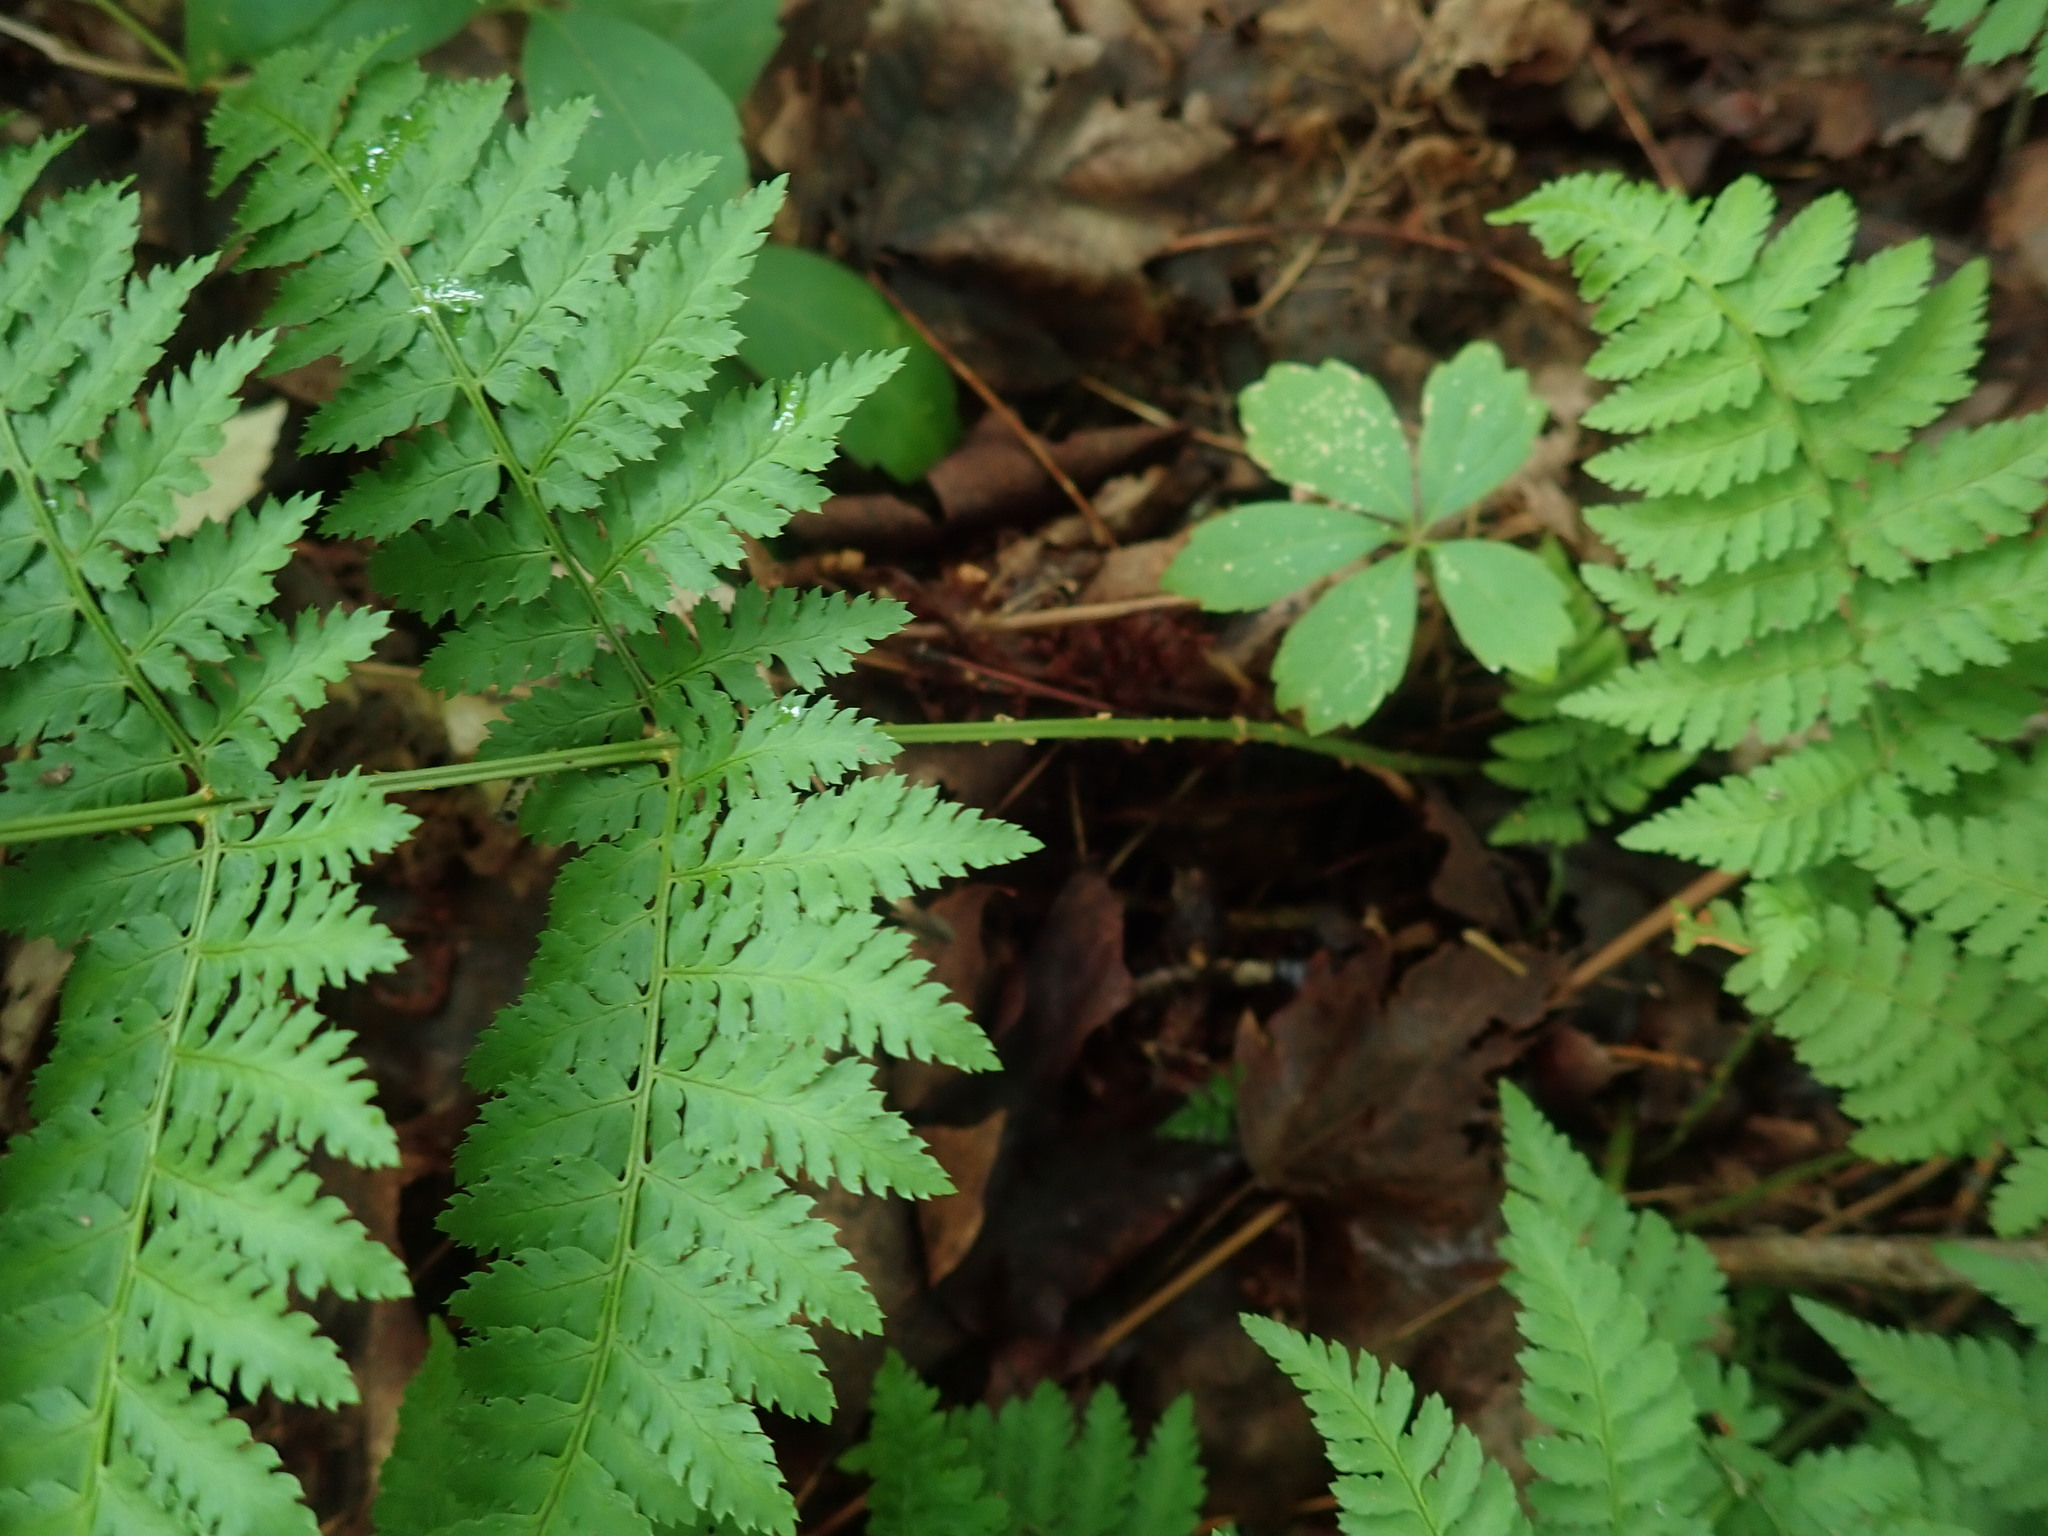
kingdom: Plantae
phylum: Tracheophyta
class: Polypodiopsida
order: Polypodiales
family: Dryopteridaceae
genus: Dryopteris
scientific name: Dryopteris intermedia
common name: Evergreen wood fern
